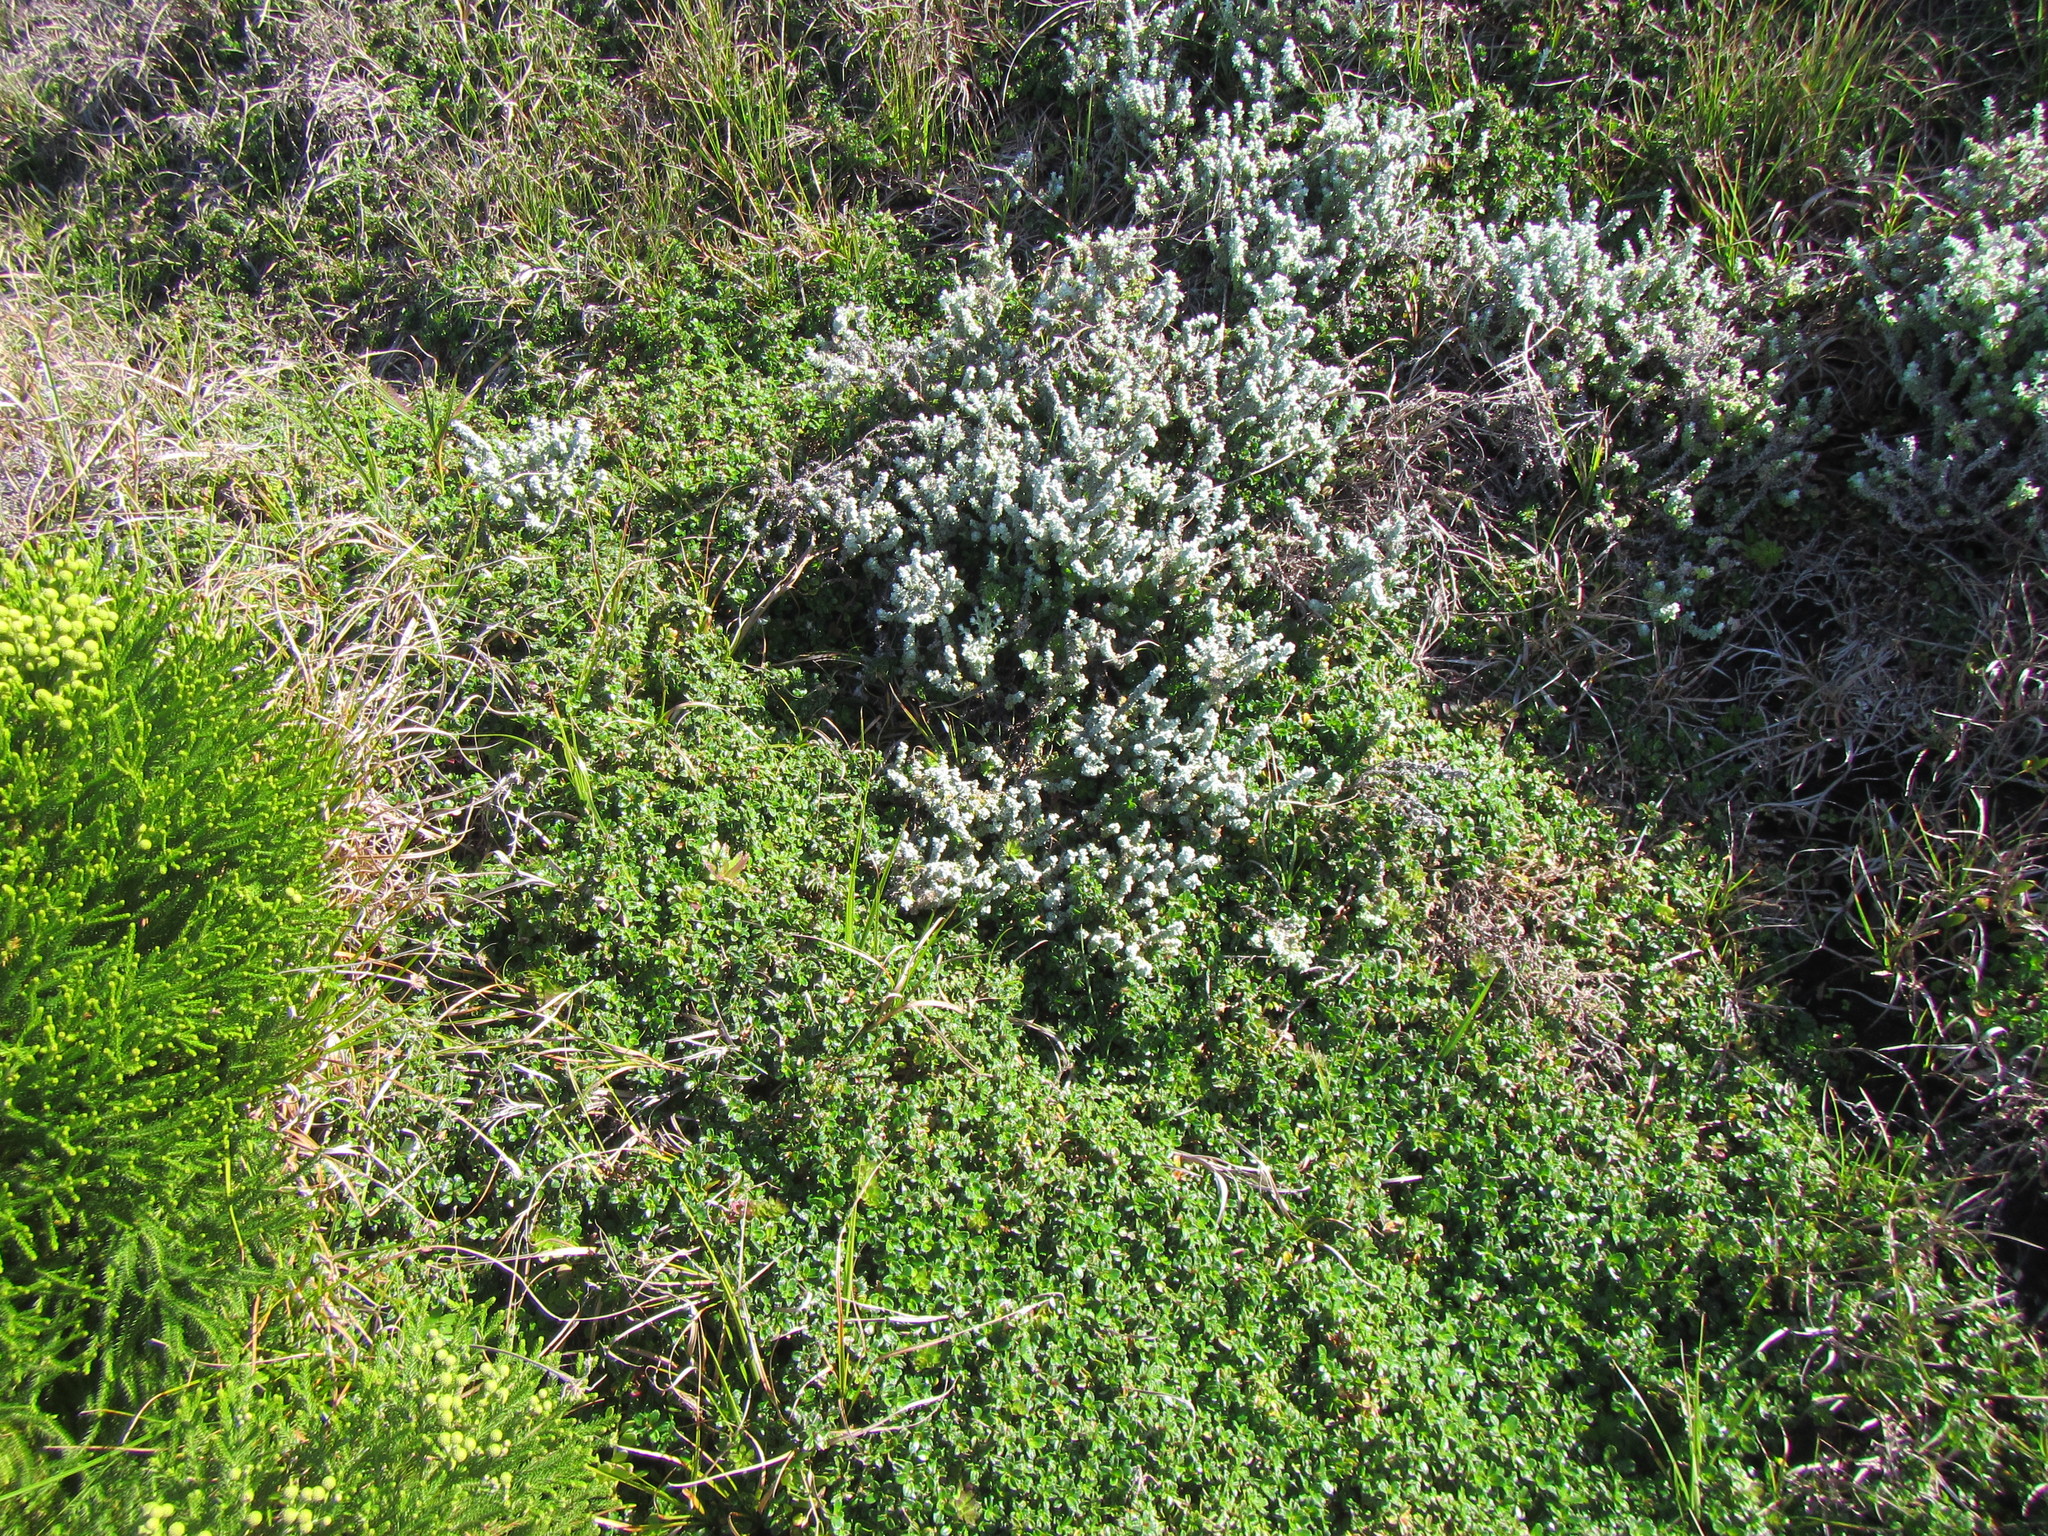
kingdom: Plantae
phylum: Tracheophyta
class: Magnoliopsida
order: Rosales
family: Rosaceae
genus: Cliffortia
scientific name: Cliffortia ferruginea
